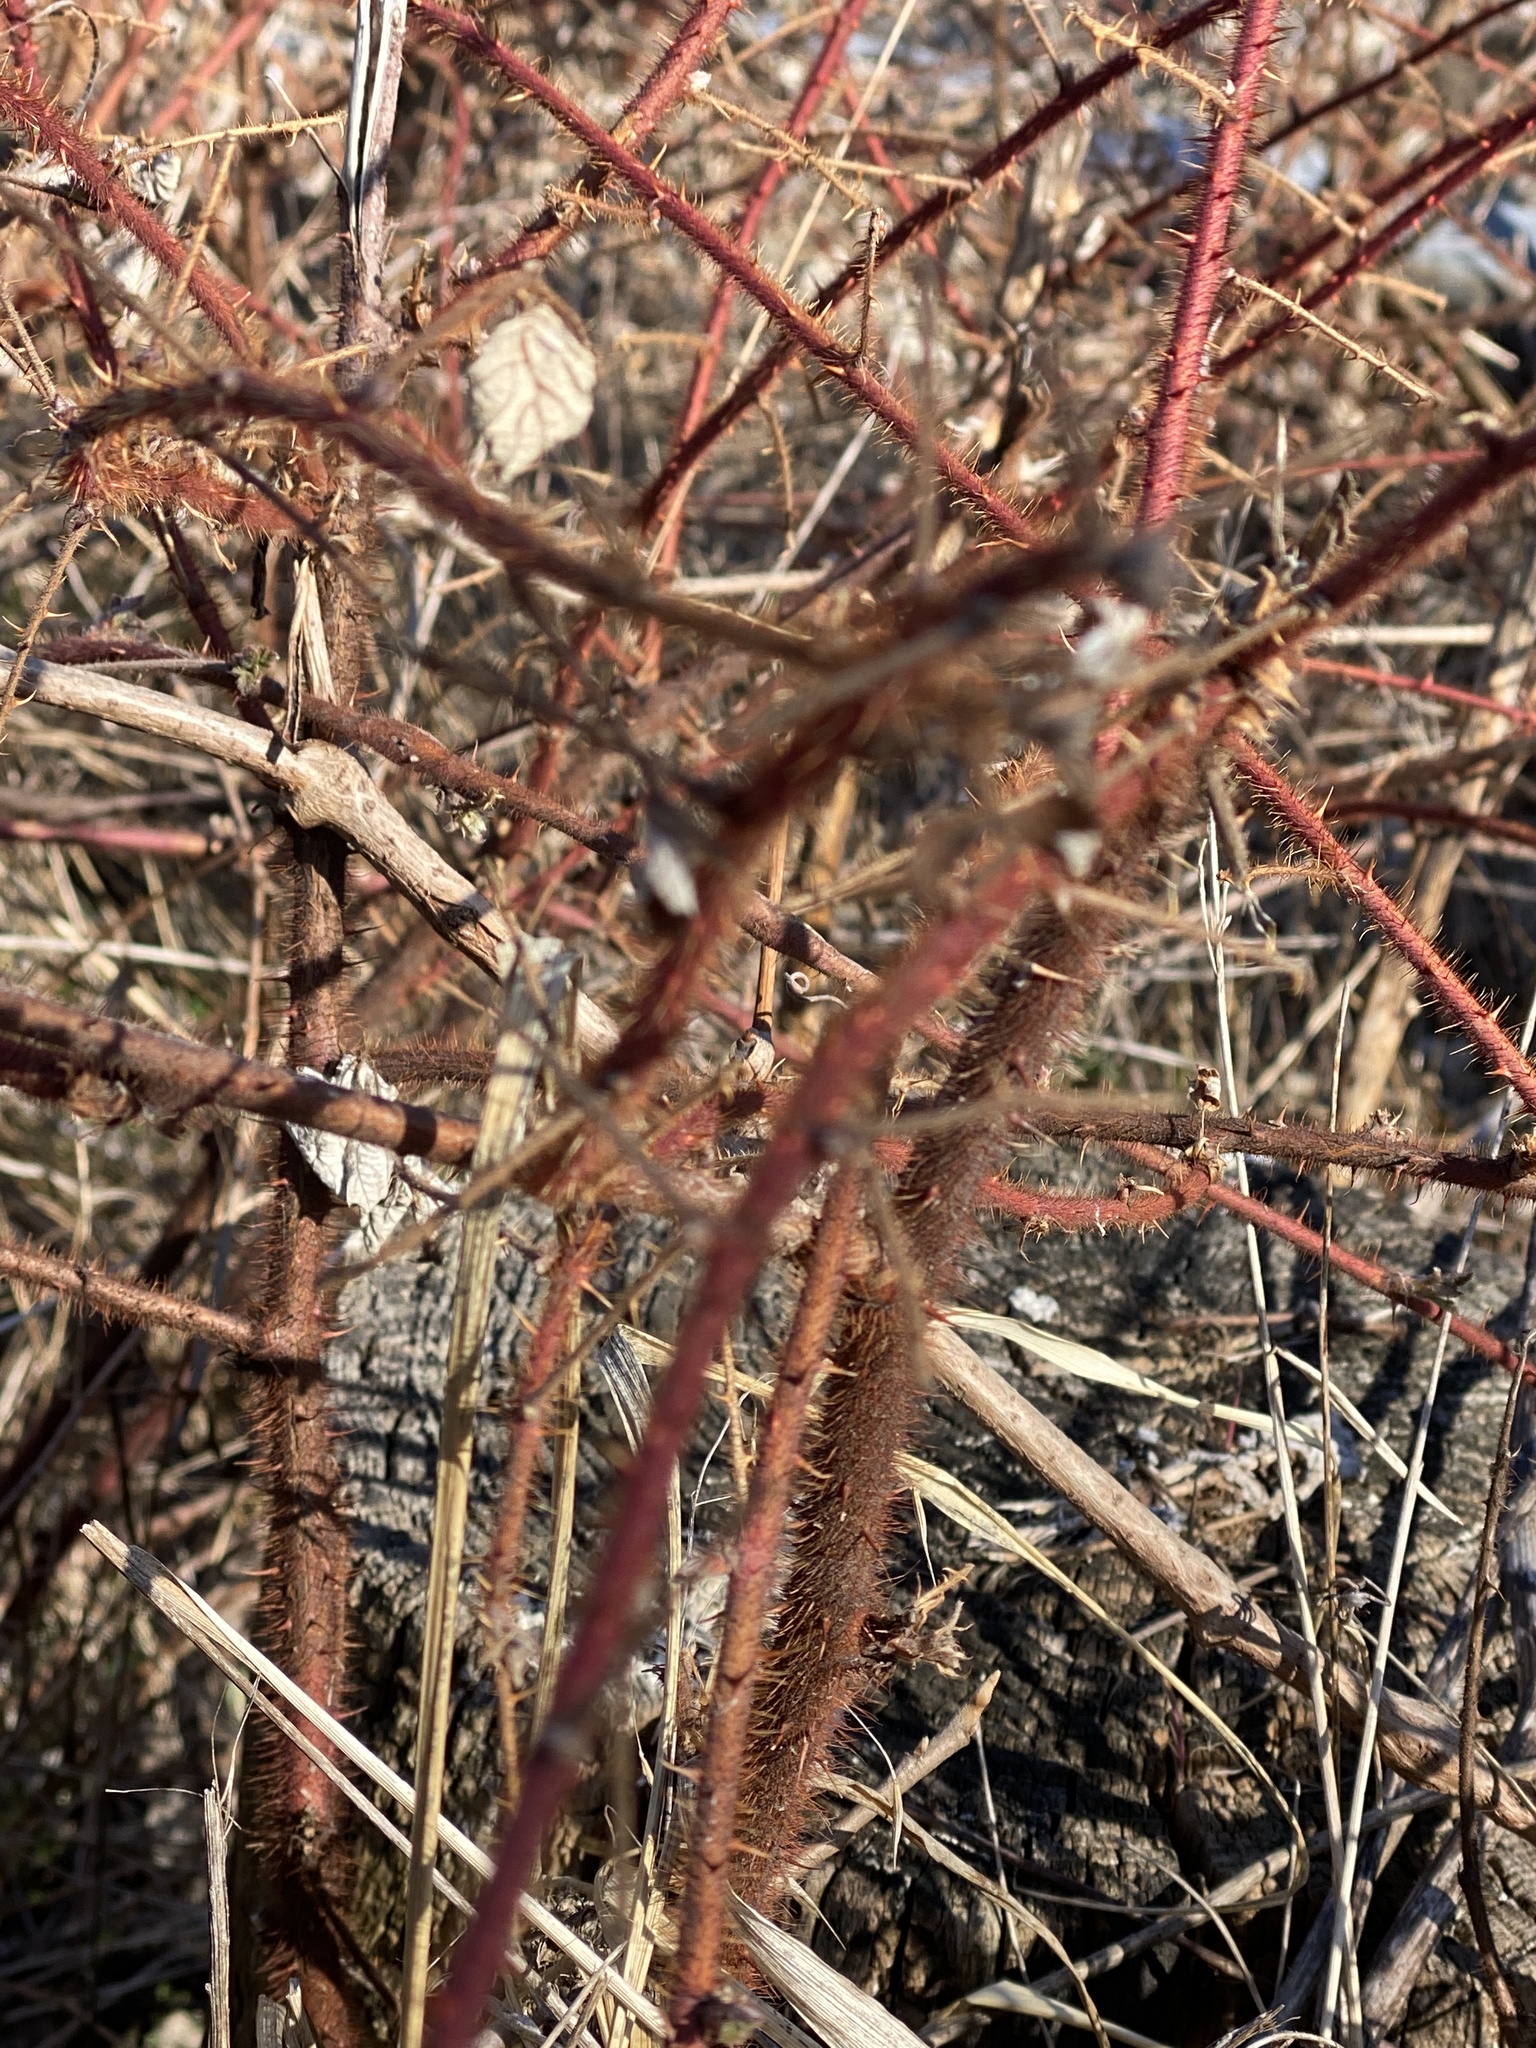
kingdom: Plantae
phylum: Tracheophyta
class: Magnoliopsida
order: Rosales
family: Rosaceae
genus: Rubus
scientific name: Rubus phoenicolasius
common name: Japanese wineberry
